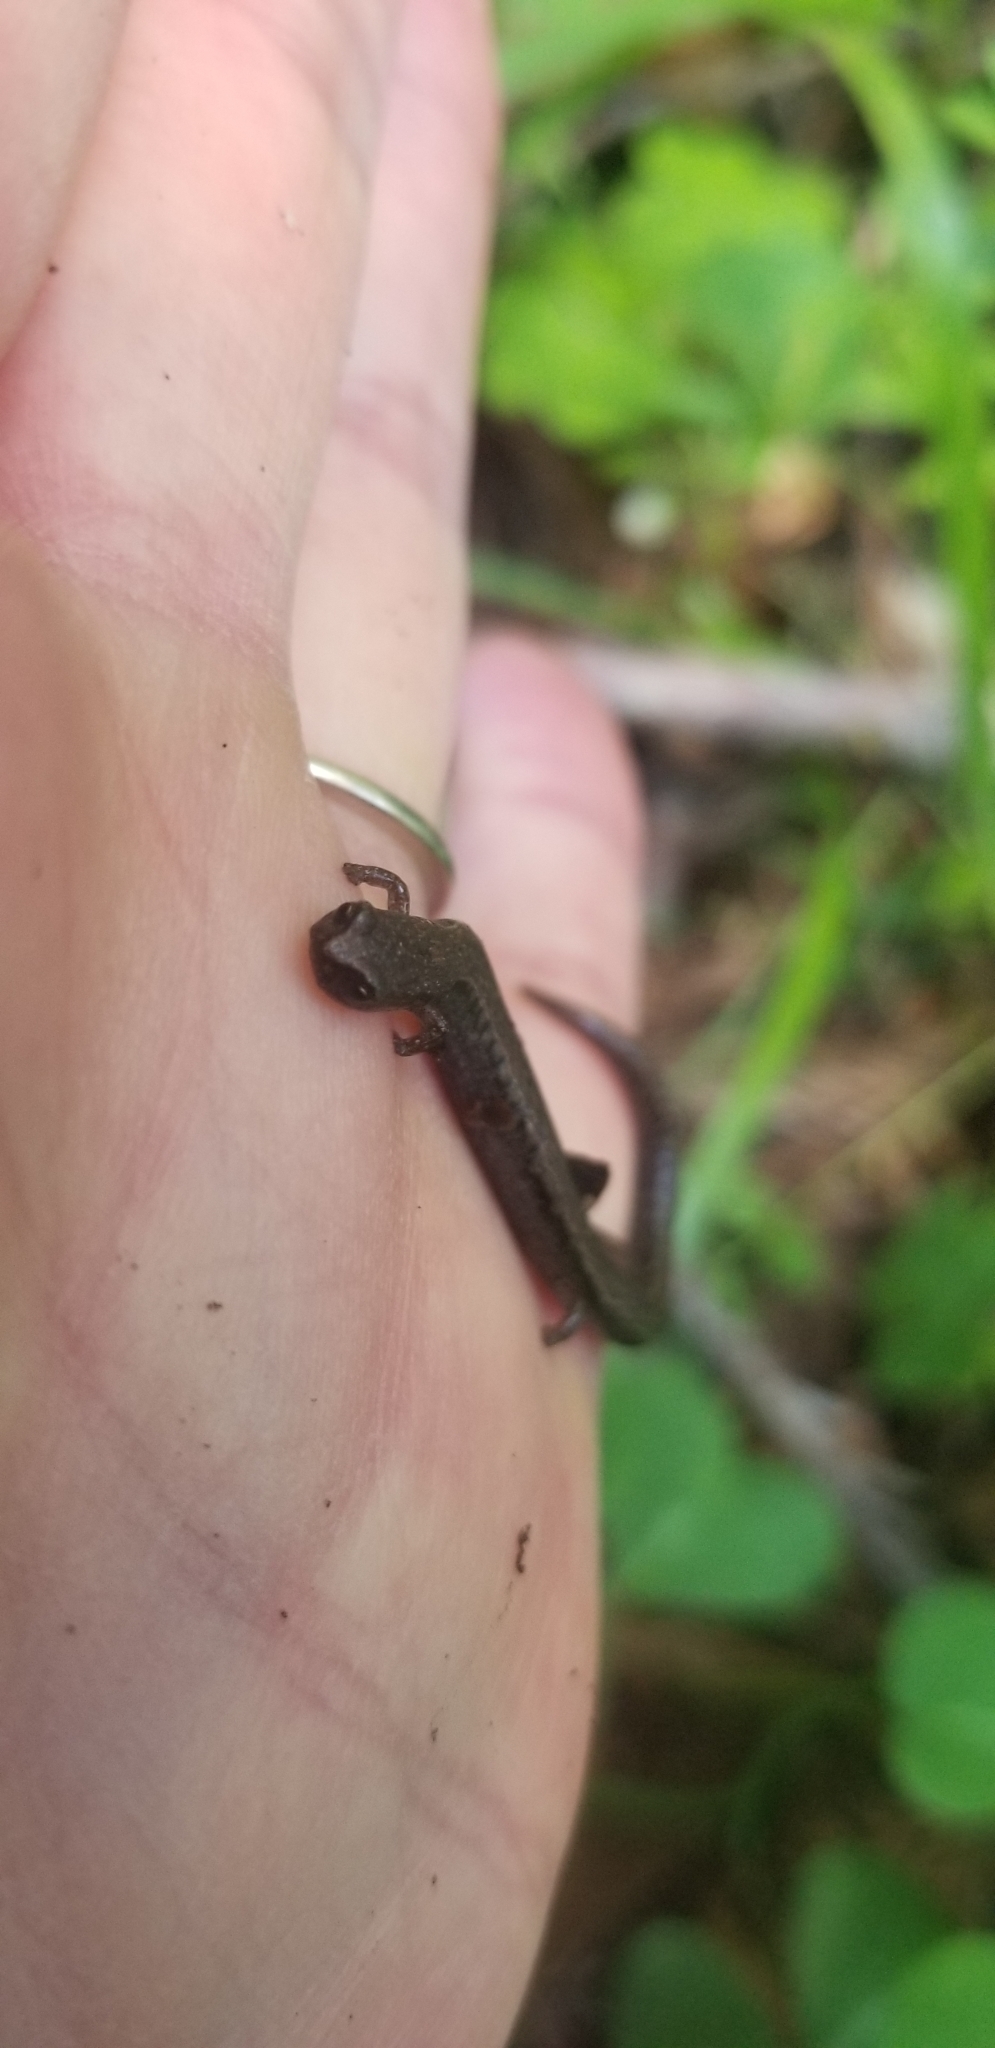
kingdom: Animalia
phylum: Chordata
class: Amphibia
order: Caudata
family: Plethodontidae
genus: Batrachoseps
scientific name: Batrachoseps attenuatus
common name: California slender salamander
